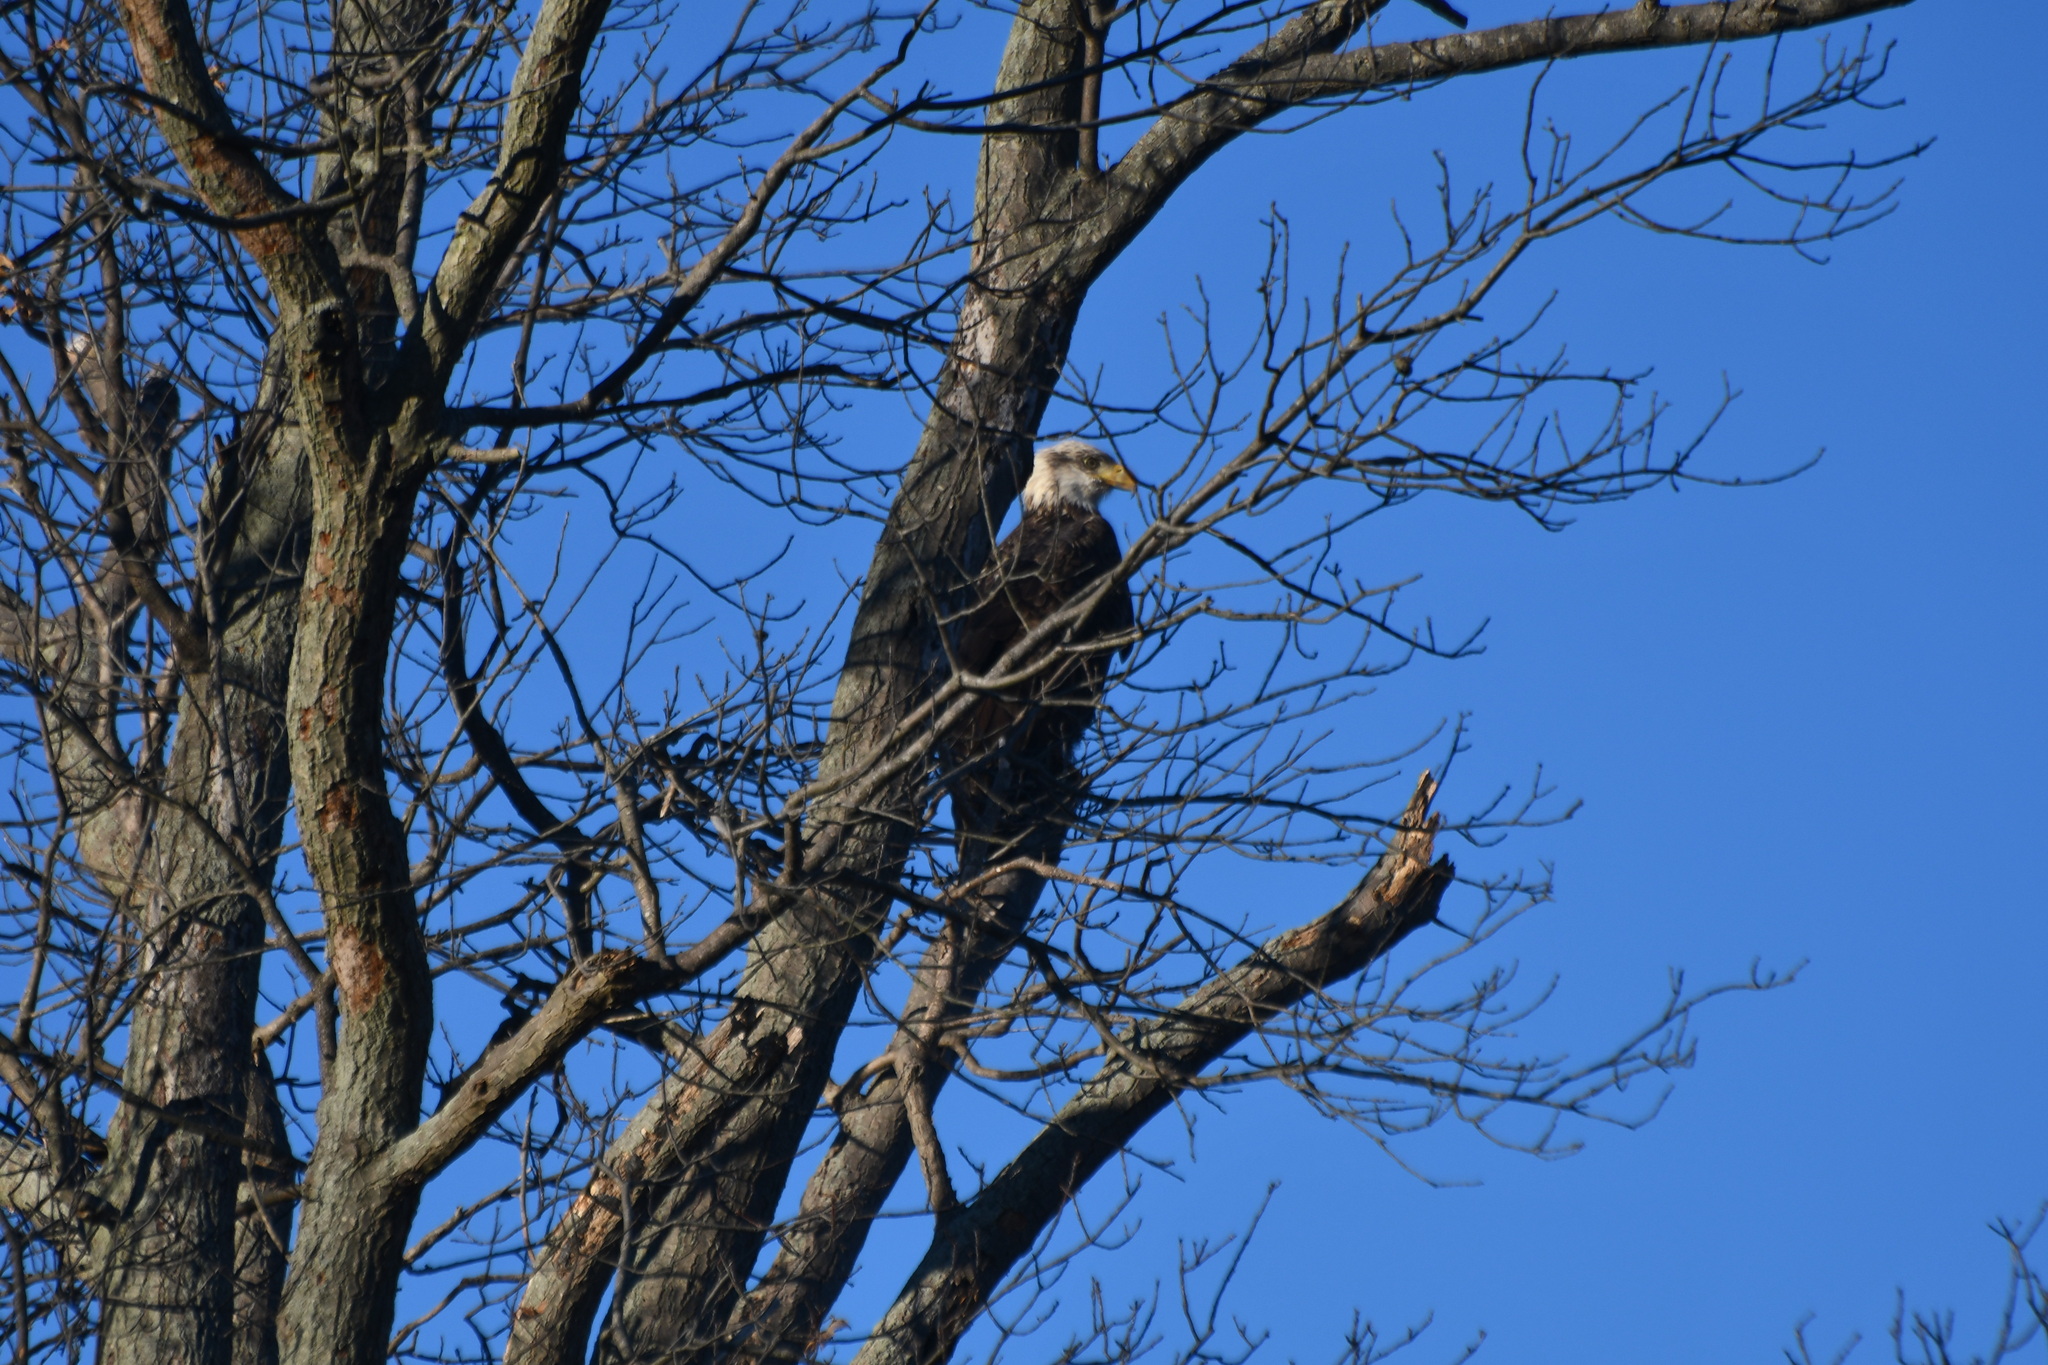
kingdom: Animalia
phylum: Chordata
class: Aves
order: Accipitriformes
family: Accipitridae
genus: Haliaeetus
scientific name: Haliaeetus leucocephalus
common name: Bald eagle
